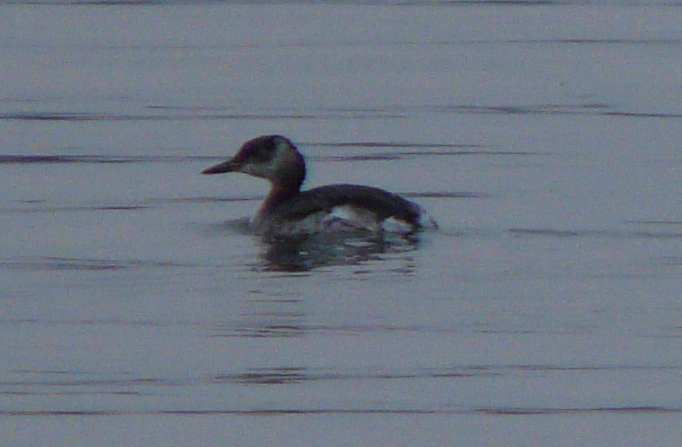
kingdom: Animalia
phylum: Chordata
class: Aves
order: Podicipediformes
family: Podicipedidae
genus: Podiceps
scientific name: Podiceps grisegena
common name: Red-necked grebe
